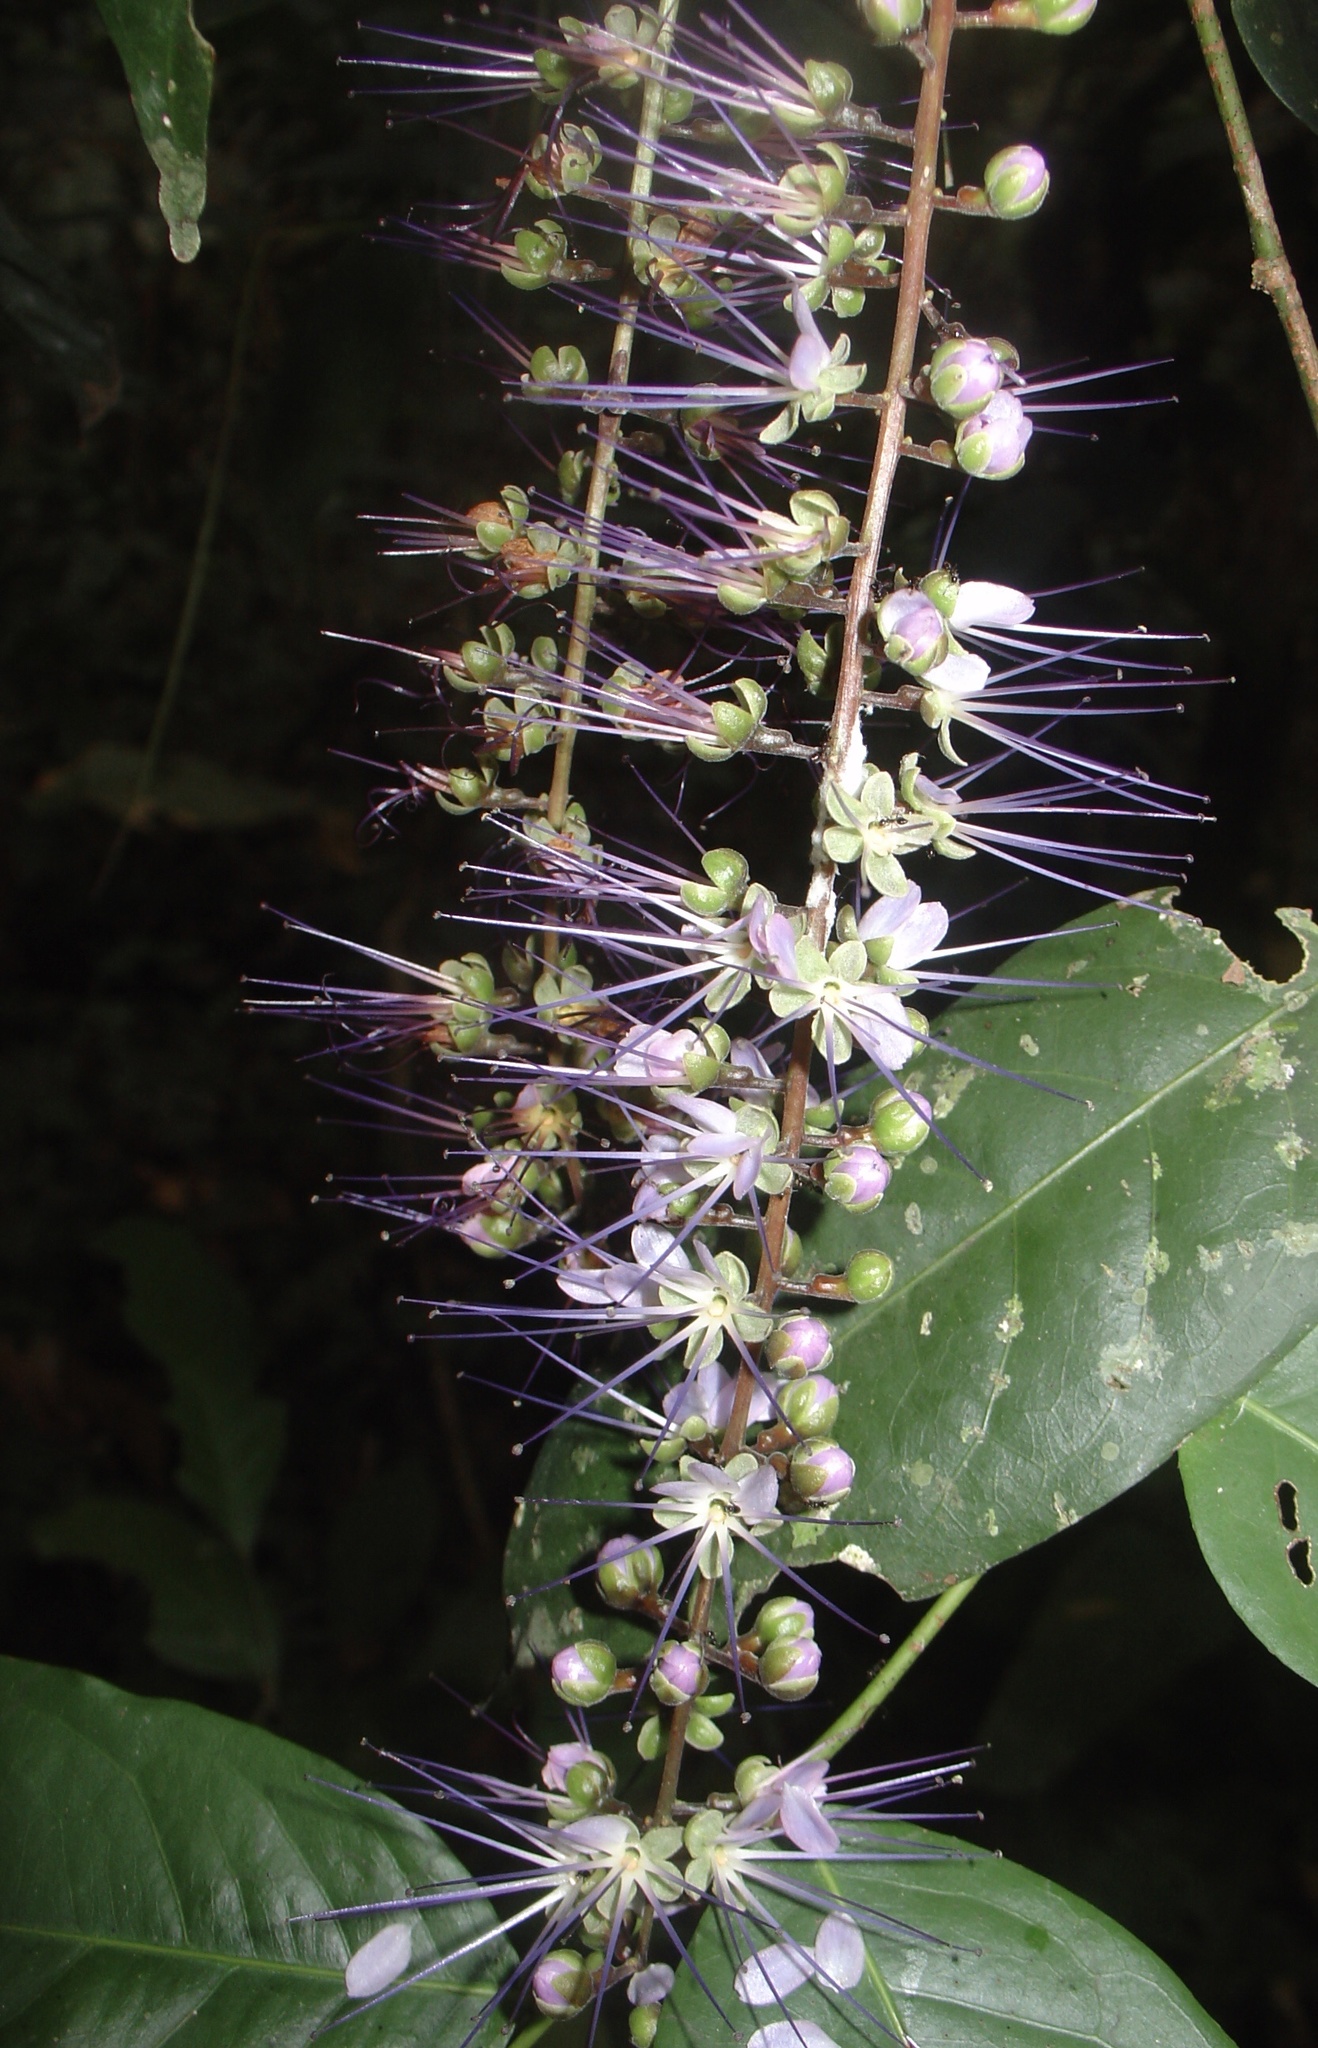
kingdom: Plantae
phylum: Tracheophyta
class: Magnoliopsida
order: Malpighiales
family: Chrysobalanaceae
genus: Hirtella
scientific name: Hirtella racemosa
